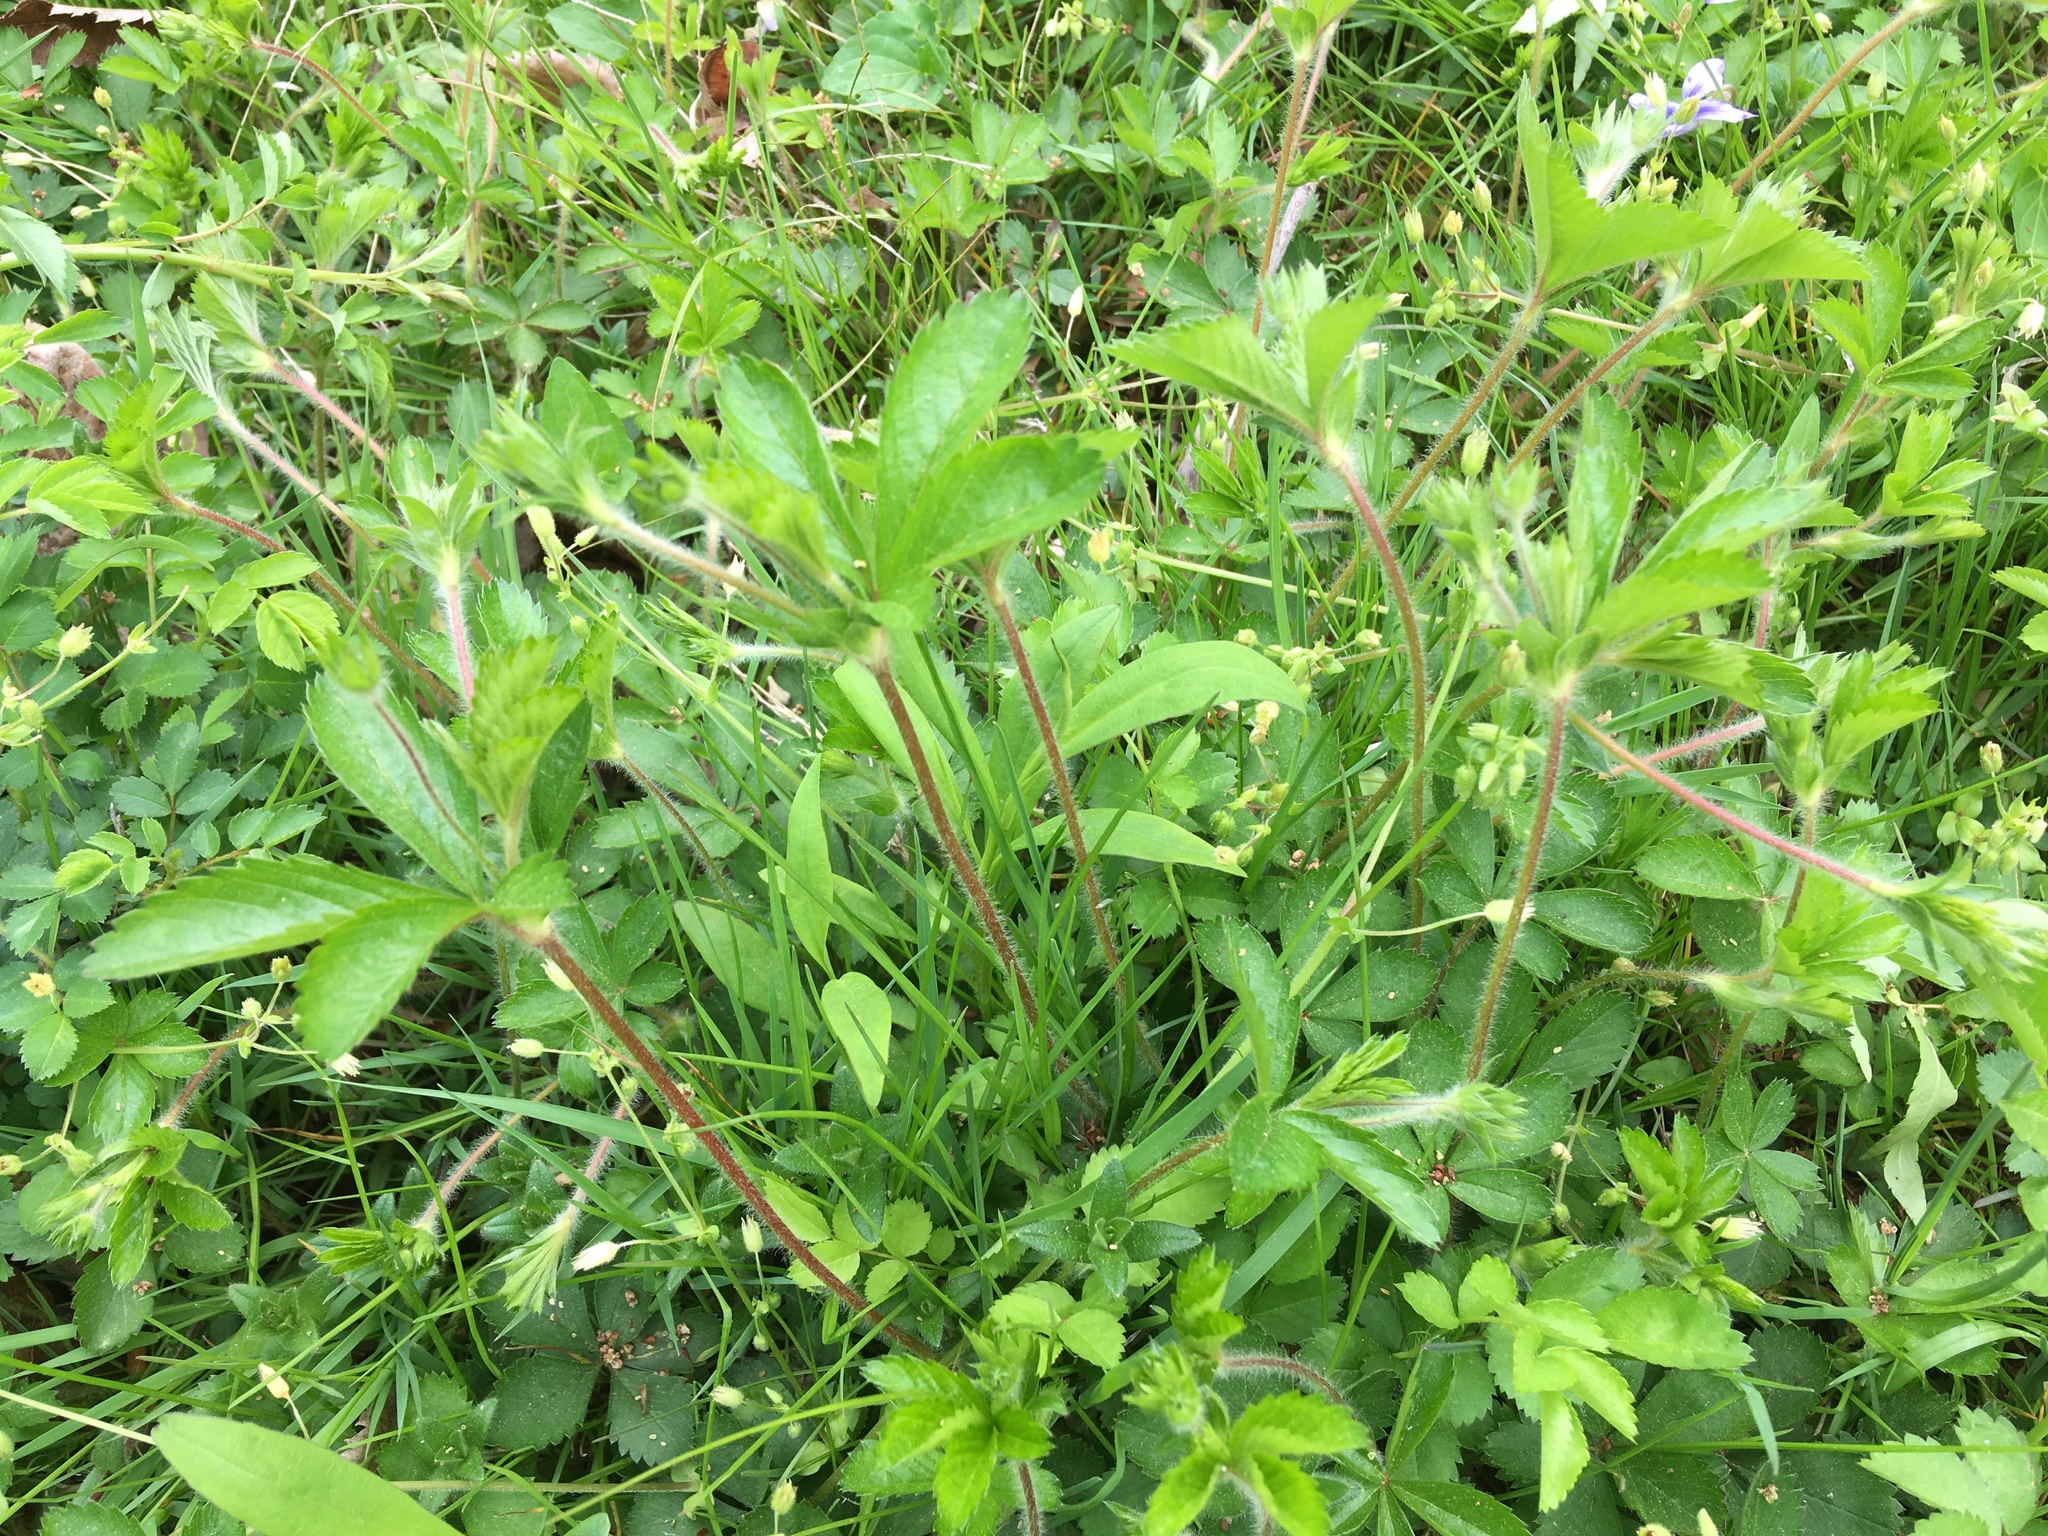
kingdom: Plantae
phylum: Tracheophyta
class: Magnoliopsida
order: Rosales
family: Rosaceae
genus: Potentilla
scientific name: Potentilla simplex
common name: Old field cinquefoil
